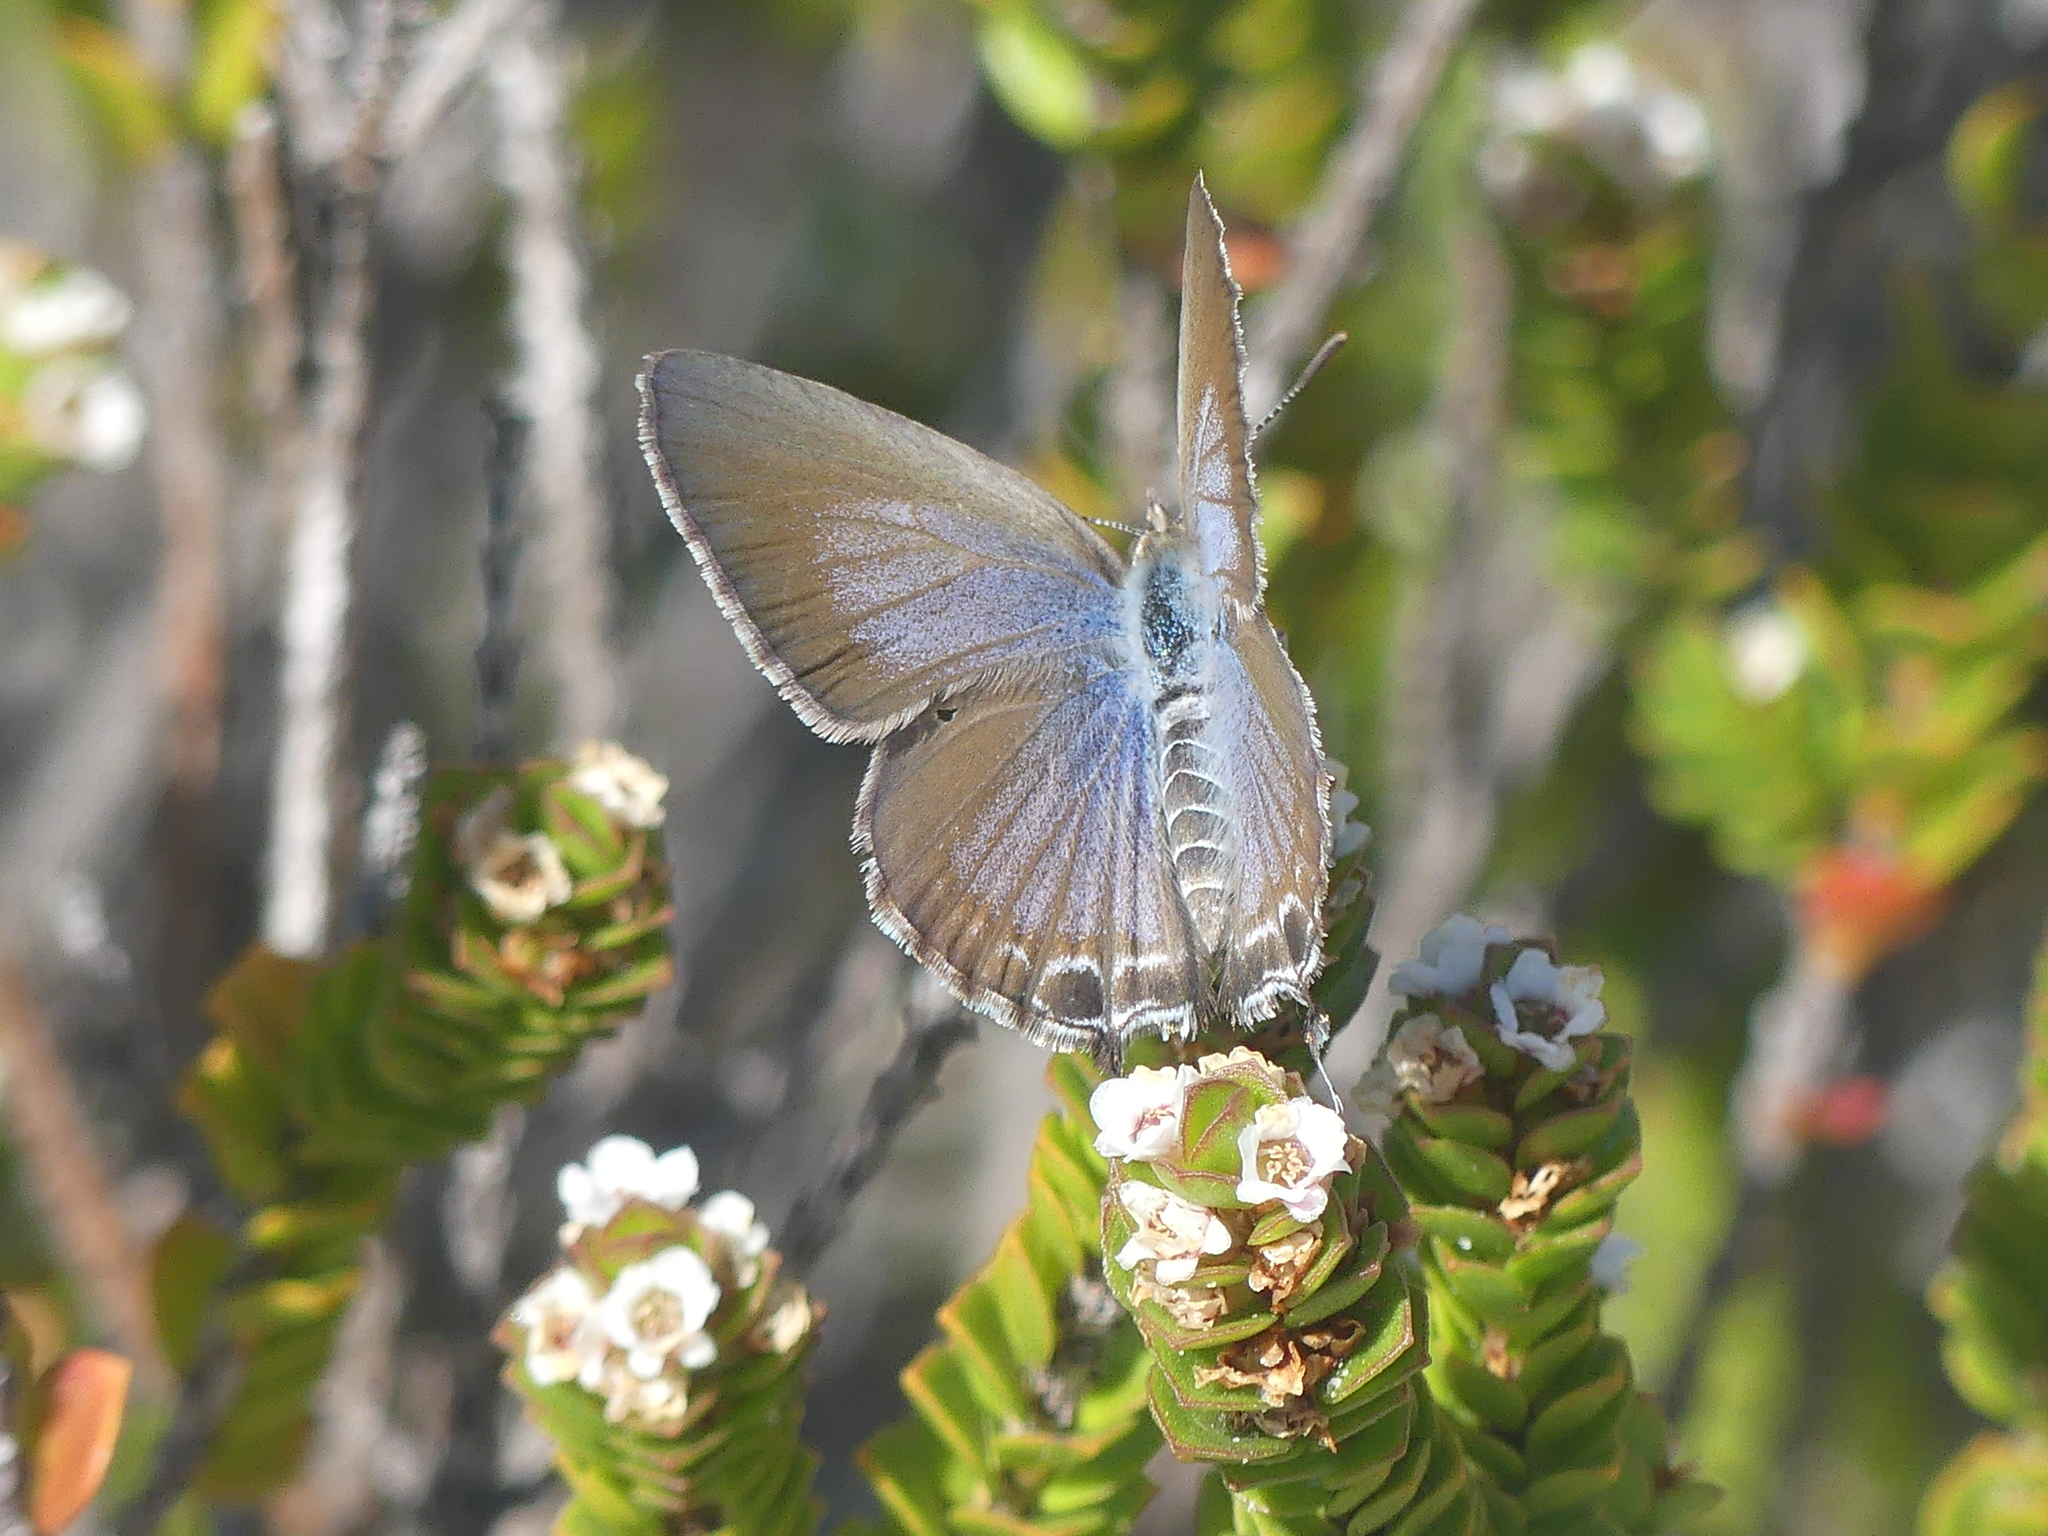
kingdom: Animalia
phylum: Arthropoda
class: Insecta
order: Lepidoptera
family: Lycaenidae
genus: Theclinesthes
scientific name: Theclinesthes miskini
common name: Wattle blue
